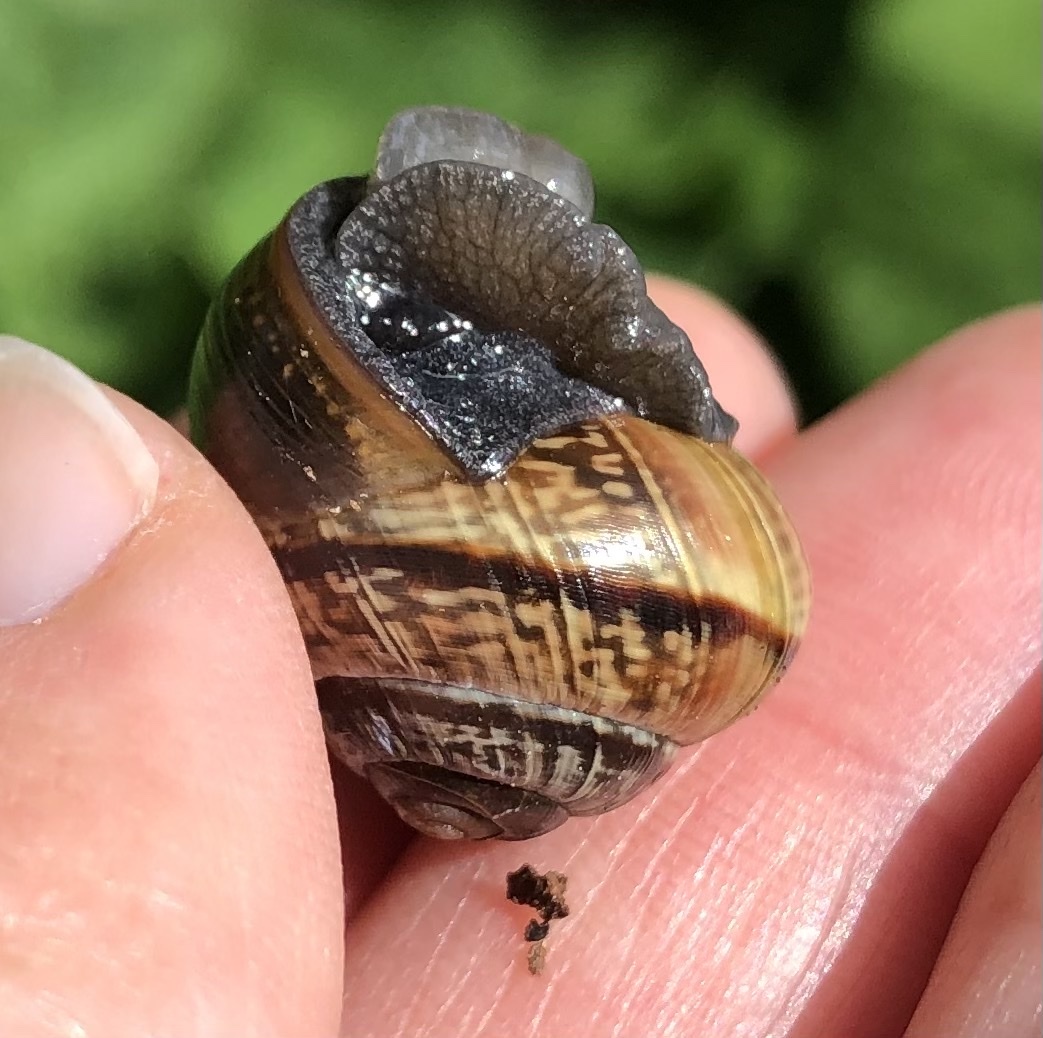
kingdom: Animalia
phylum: Mollusca
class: Gastropoda
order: Stylommatophora
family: Helicidae
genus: Arianta
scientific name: Arianta arbustorum
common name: Copse snail
